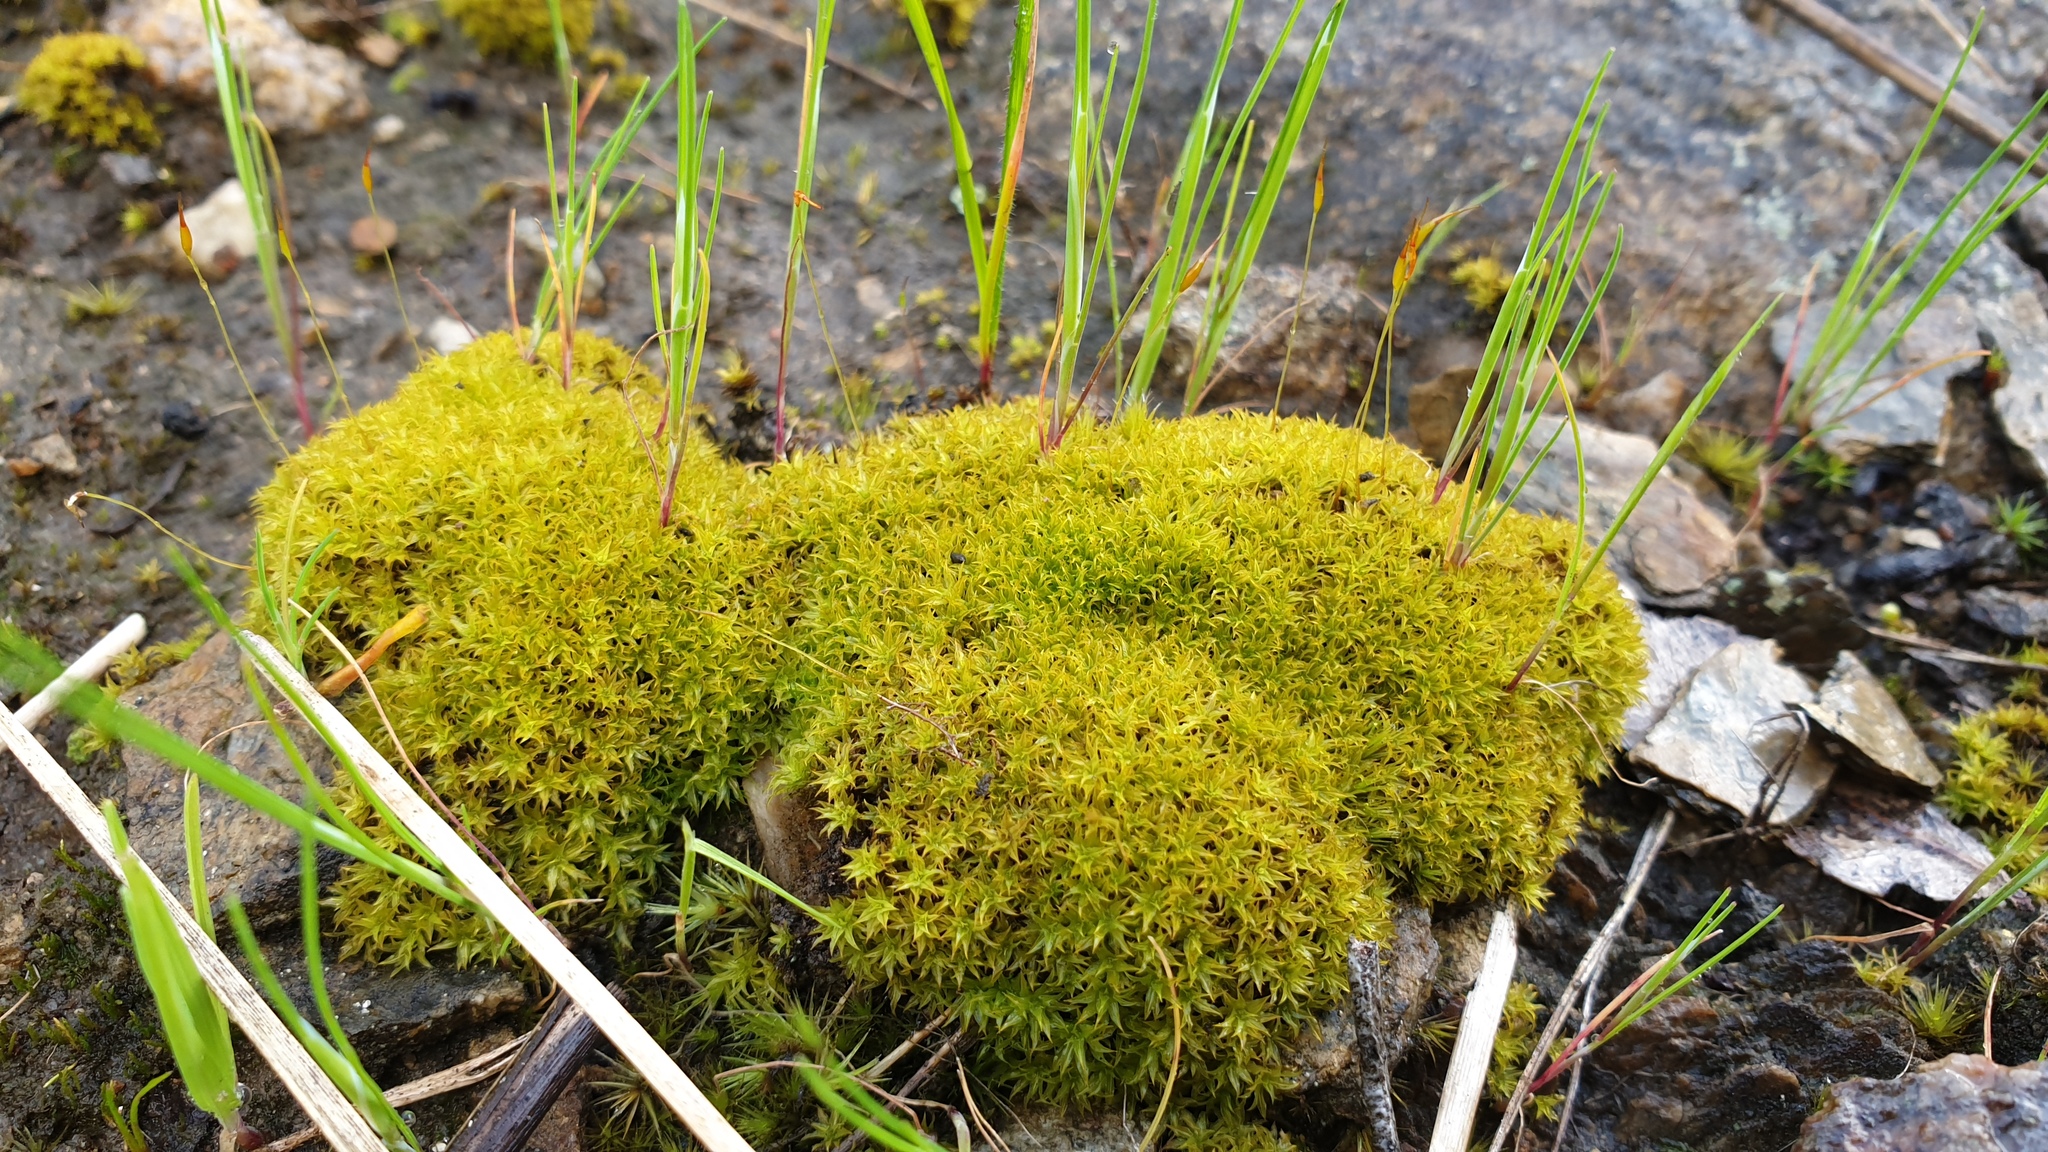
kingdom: Plantae
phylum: Bryophyta
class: Bryopsida
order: Pottiales
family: Pottiaceae
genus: Barbula
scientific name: Barbula calycina
